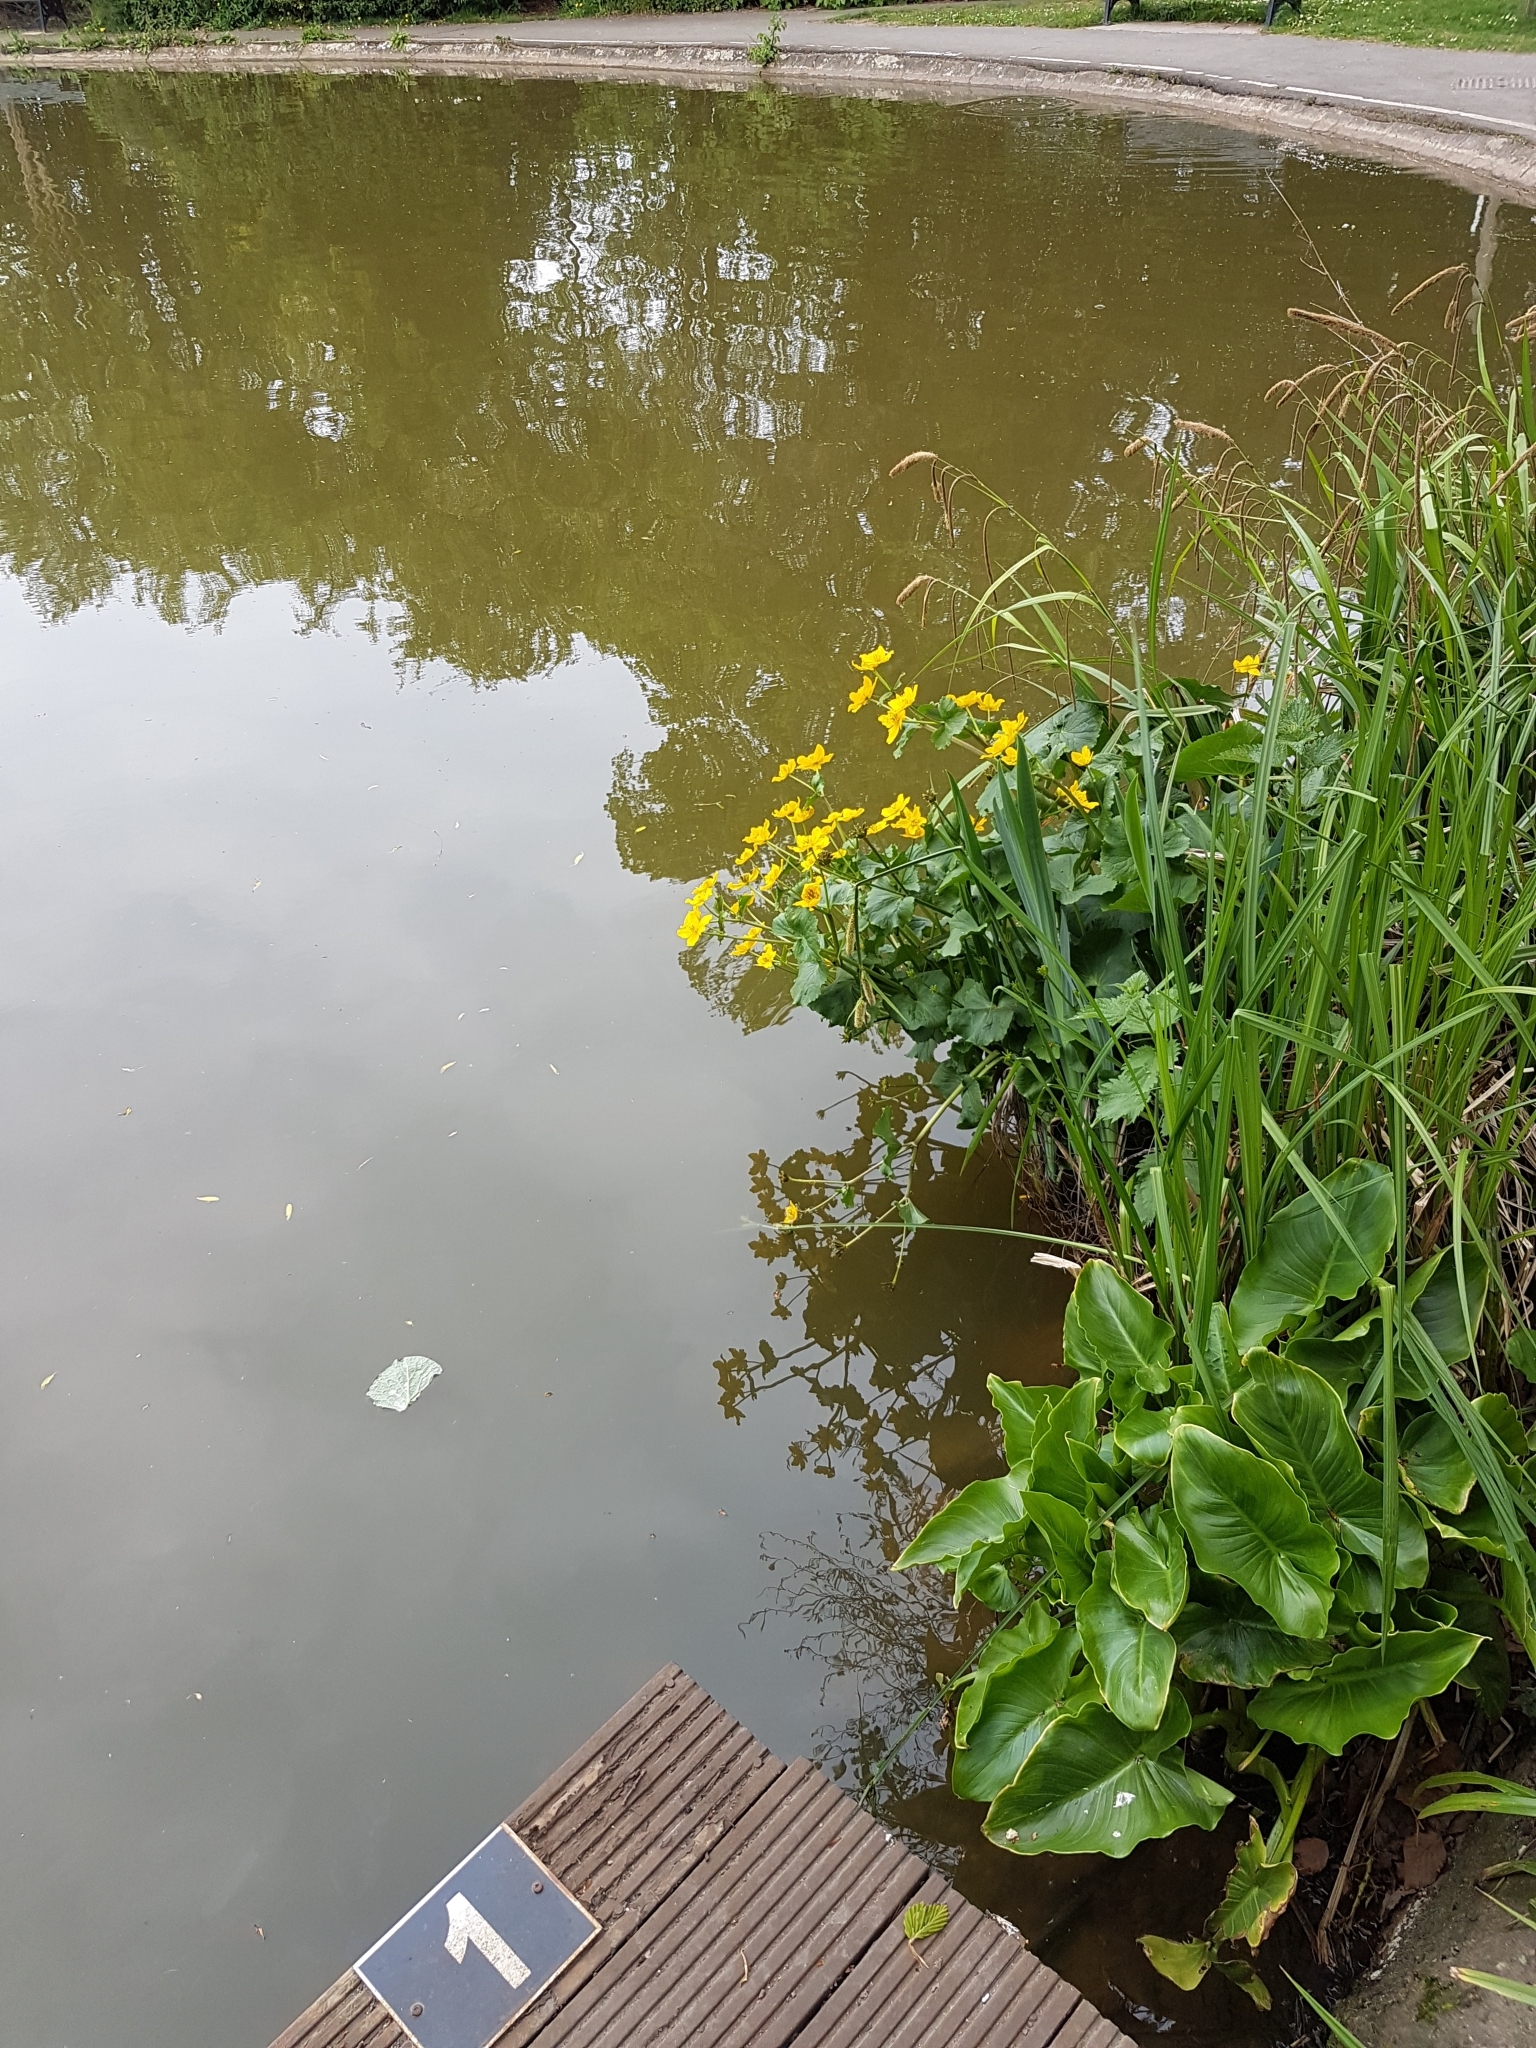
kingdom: Plantae
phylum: Tracheophyta
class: Magnoliopsida
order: Ranunculales
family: Ranunculaceae
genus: Caltha
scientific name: Caltha palustris
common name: Marsh marigold
